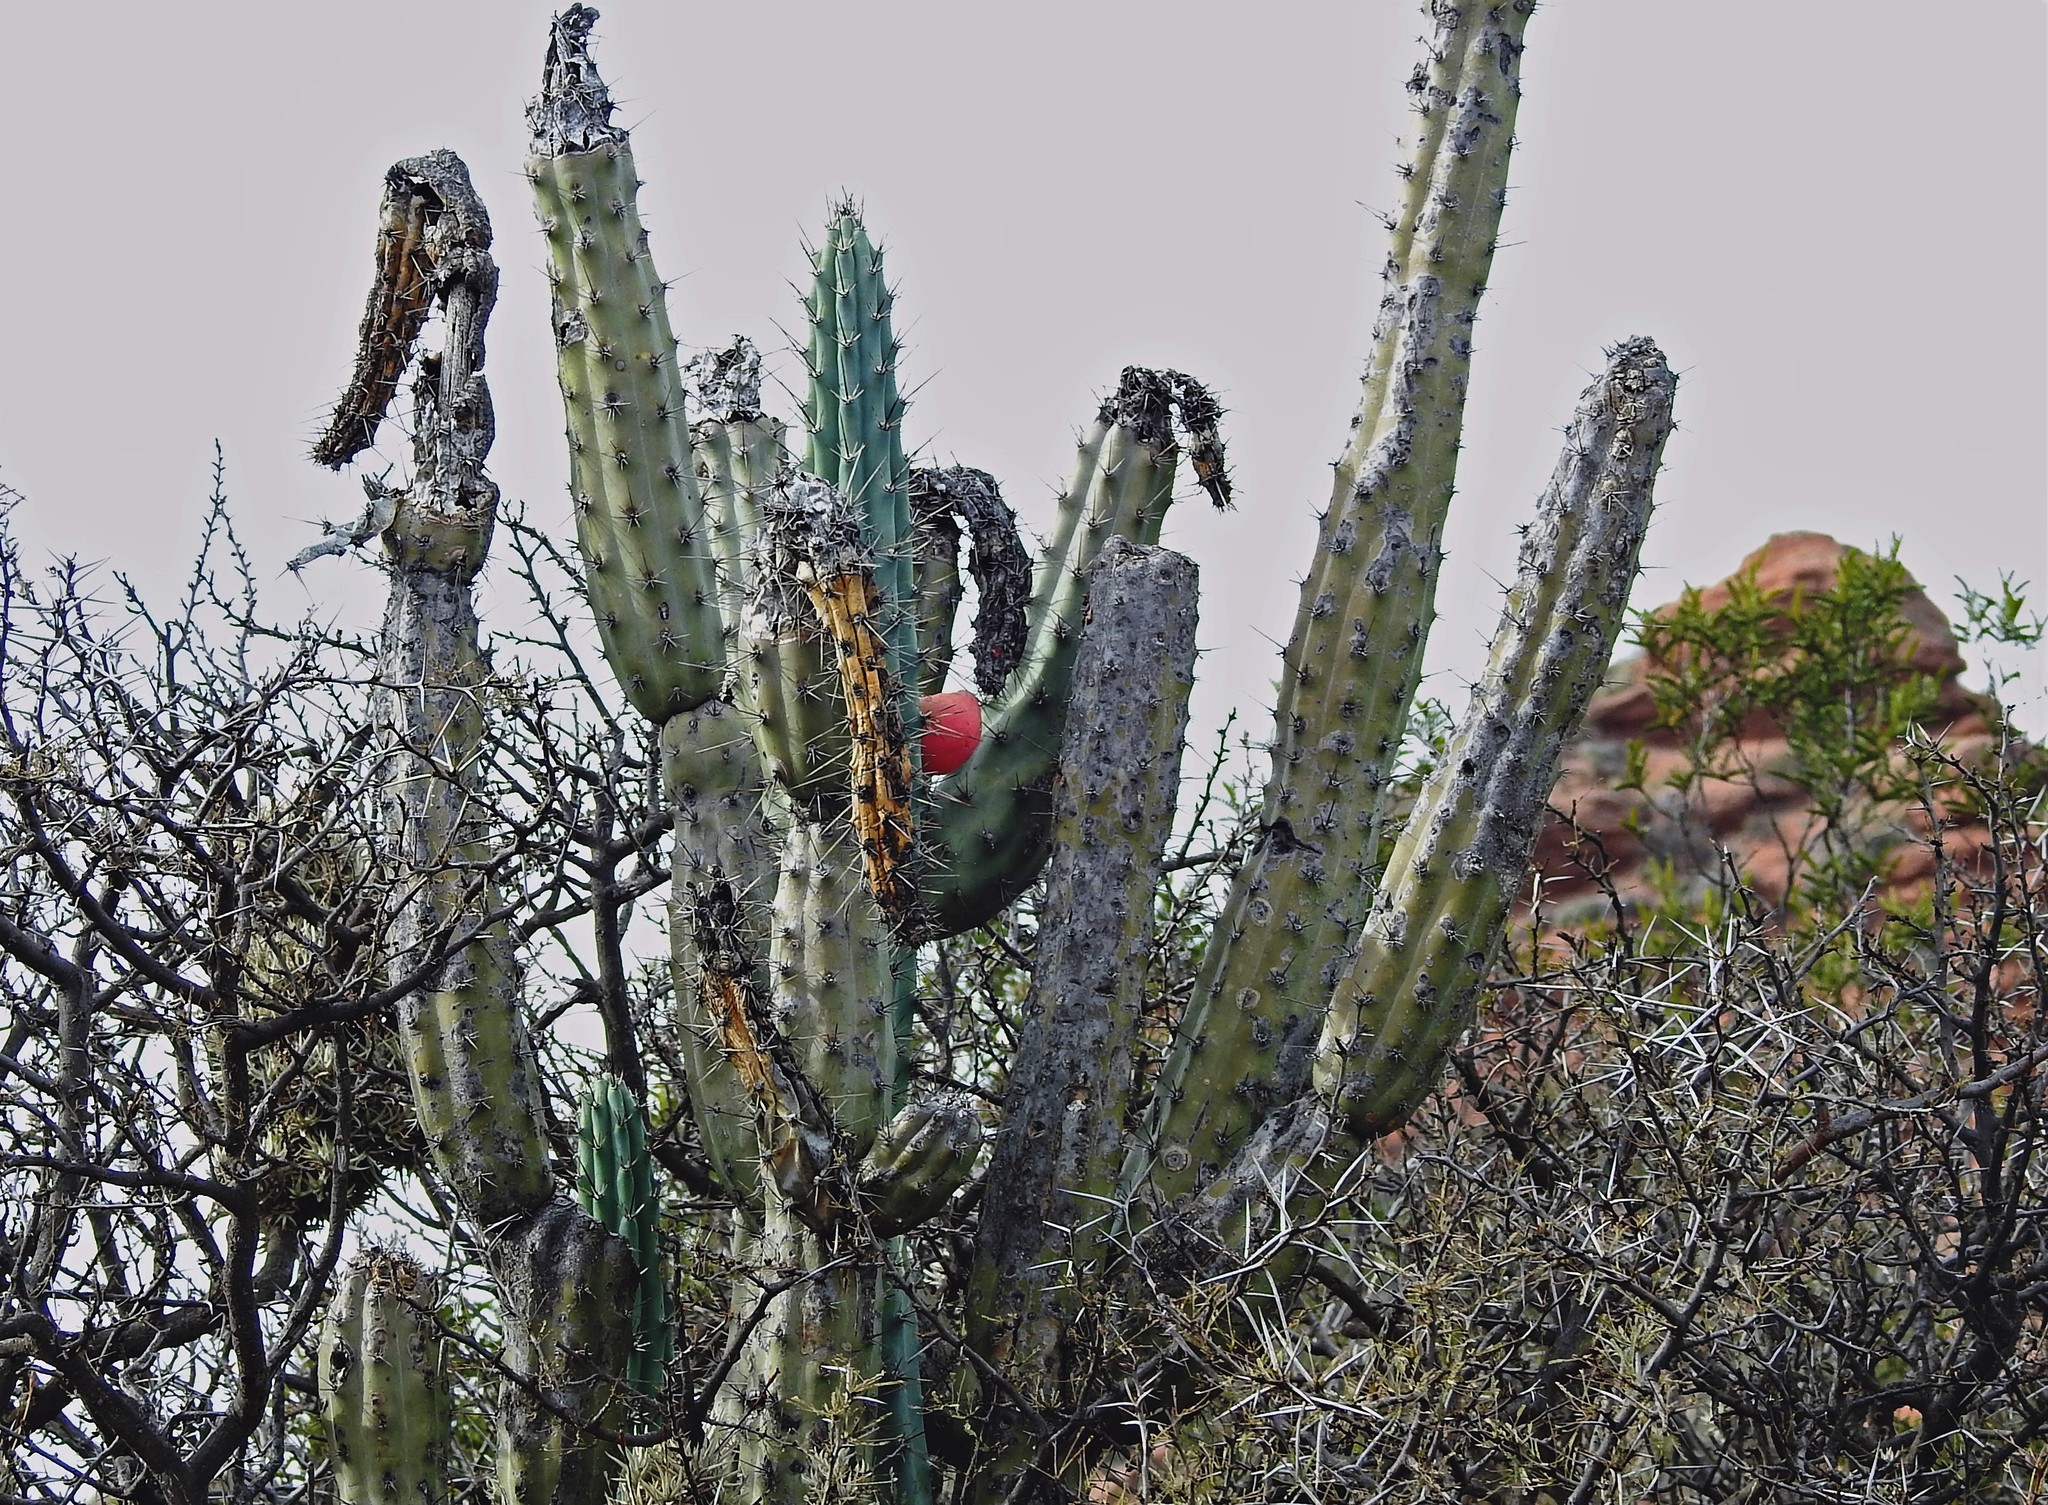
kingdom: Plantae
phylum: Tracheophyta
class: Magnoliopsida
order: Caryophyllales
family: Cactaceae
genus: Cereus
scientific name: Cereus aethiops
